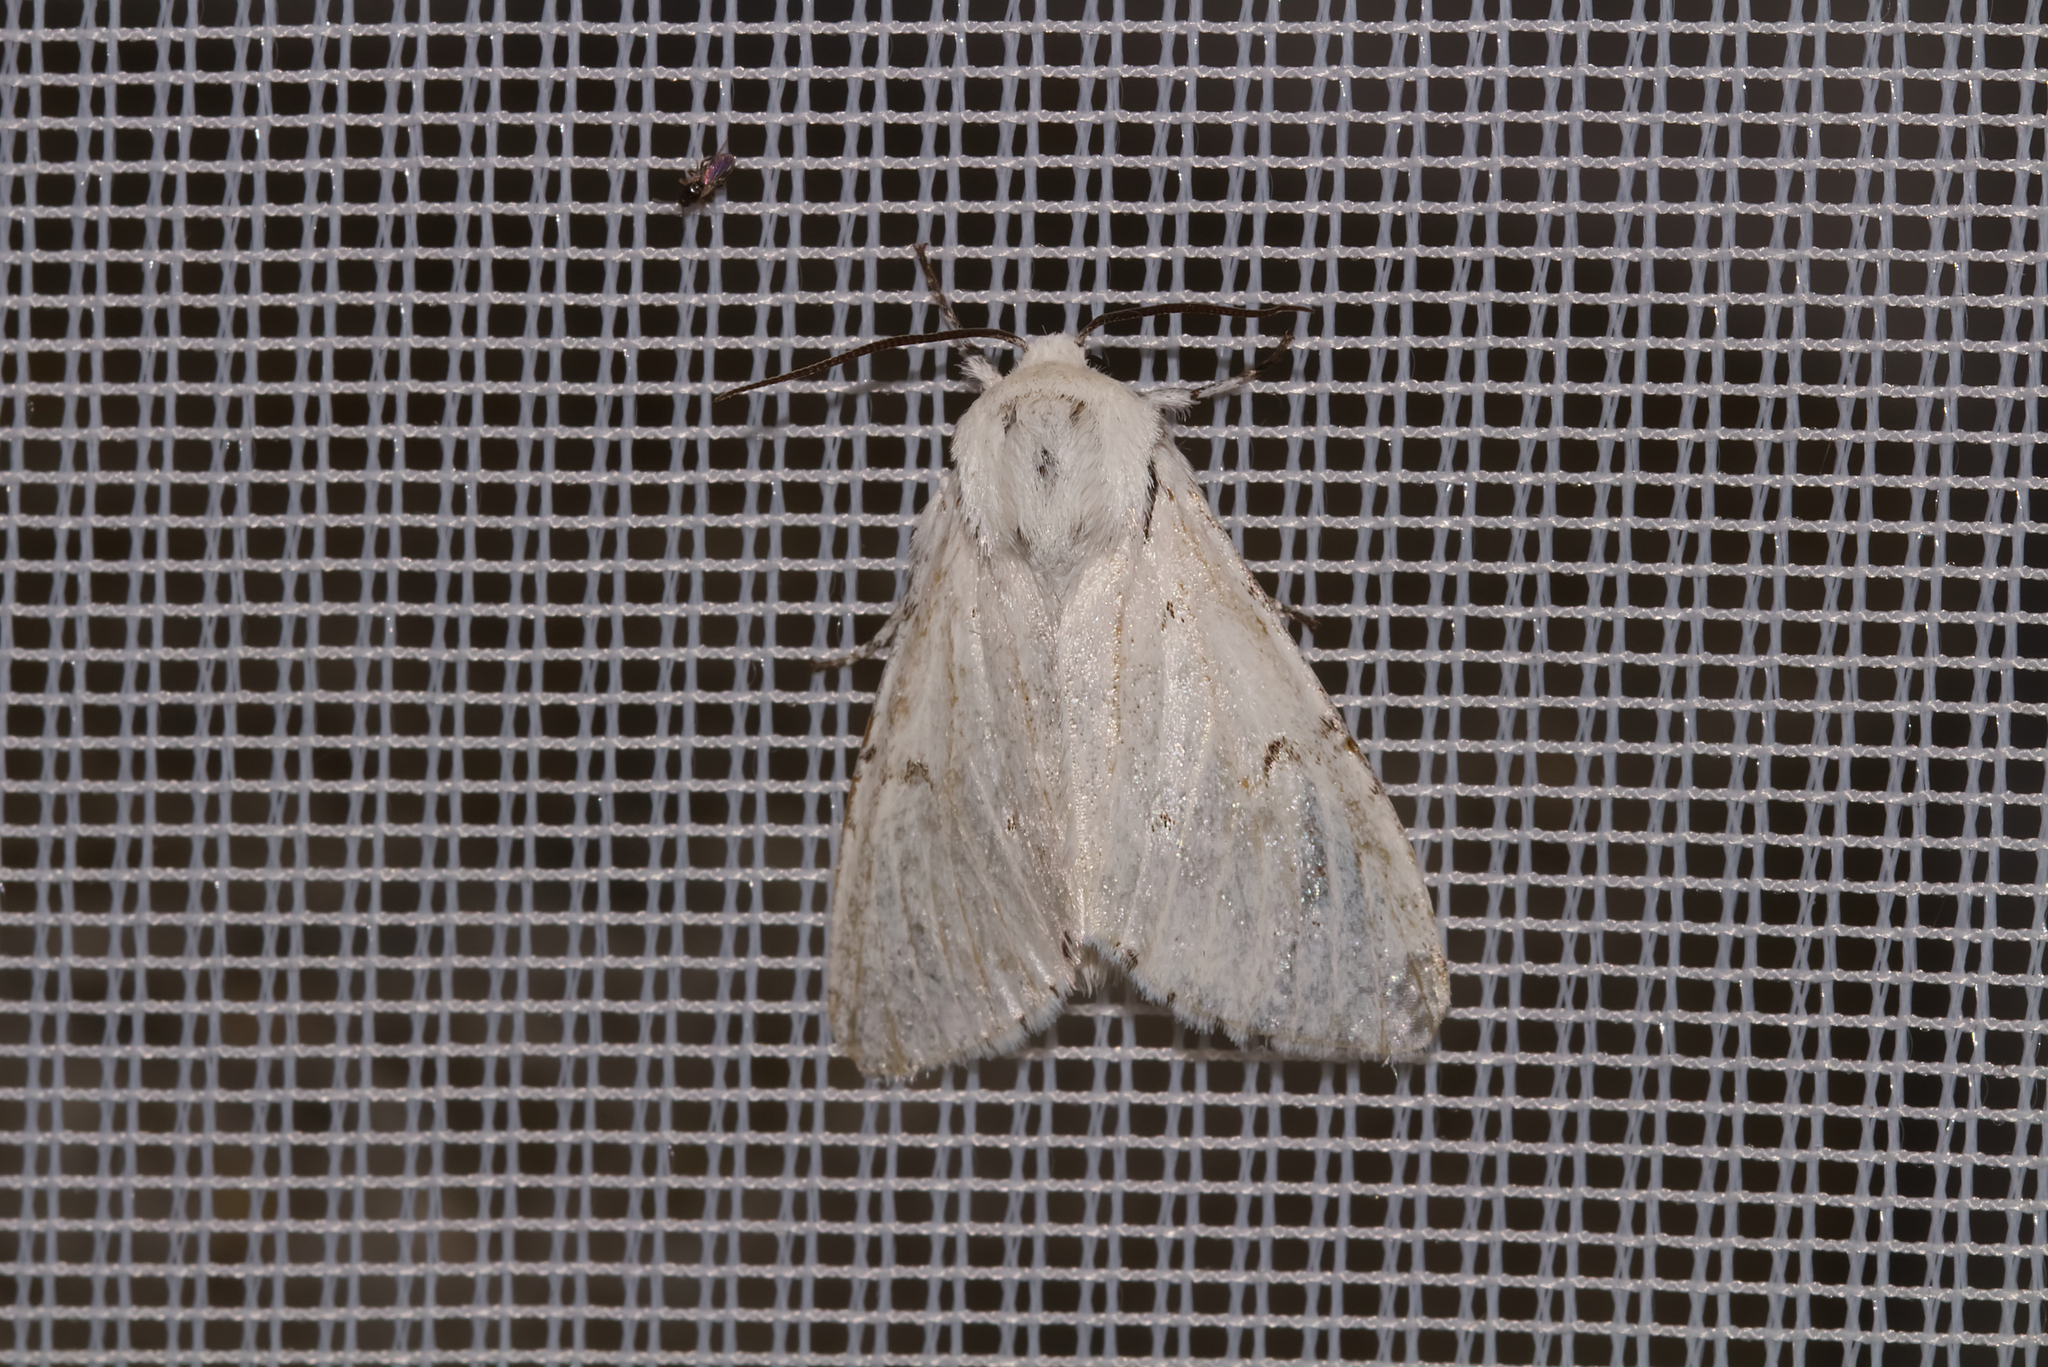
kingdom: Animalia
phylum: Arthropoda
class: Insecta
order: Lepidoptera
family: Noctuidae
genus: Acronicta
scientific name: Acronicta leporina
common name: Miller
